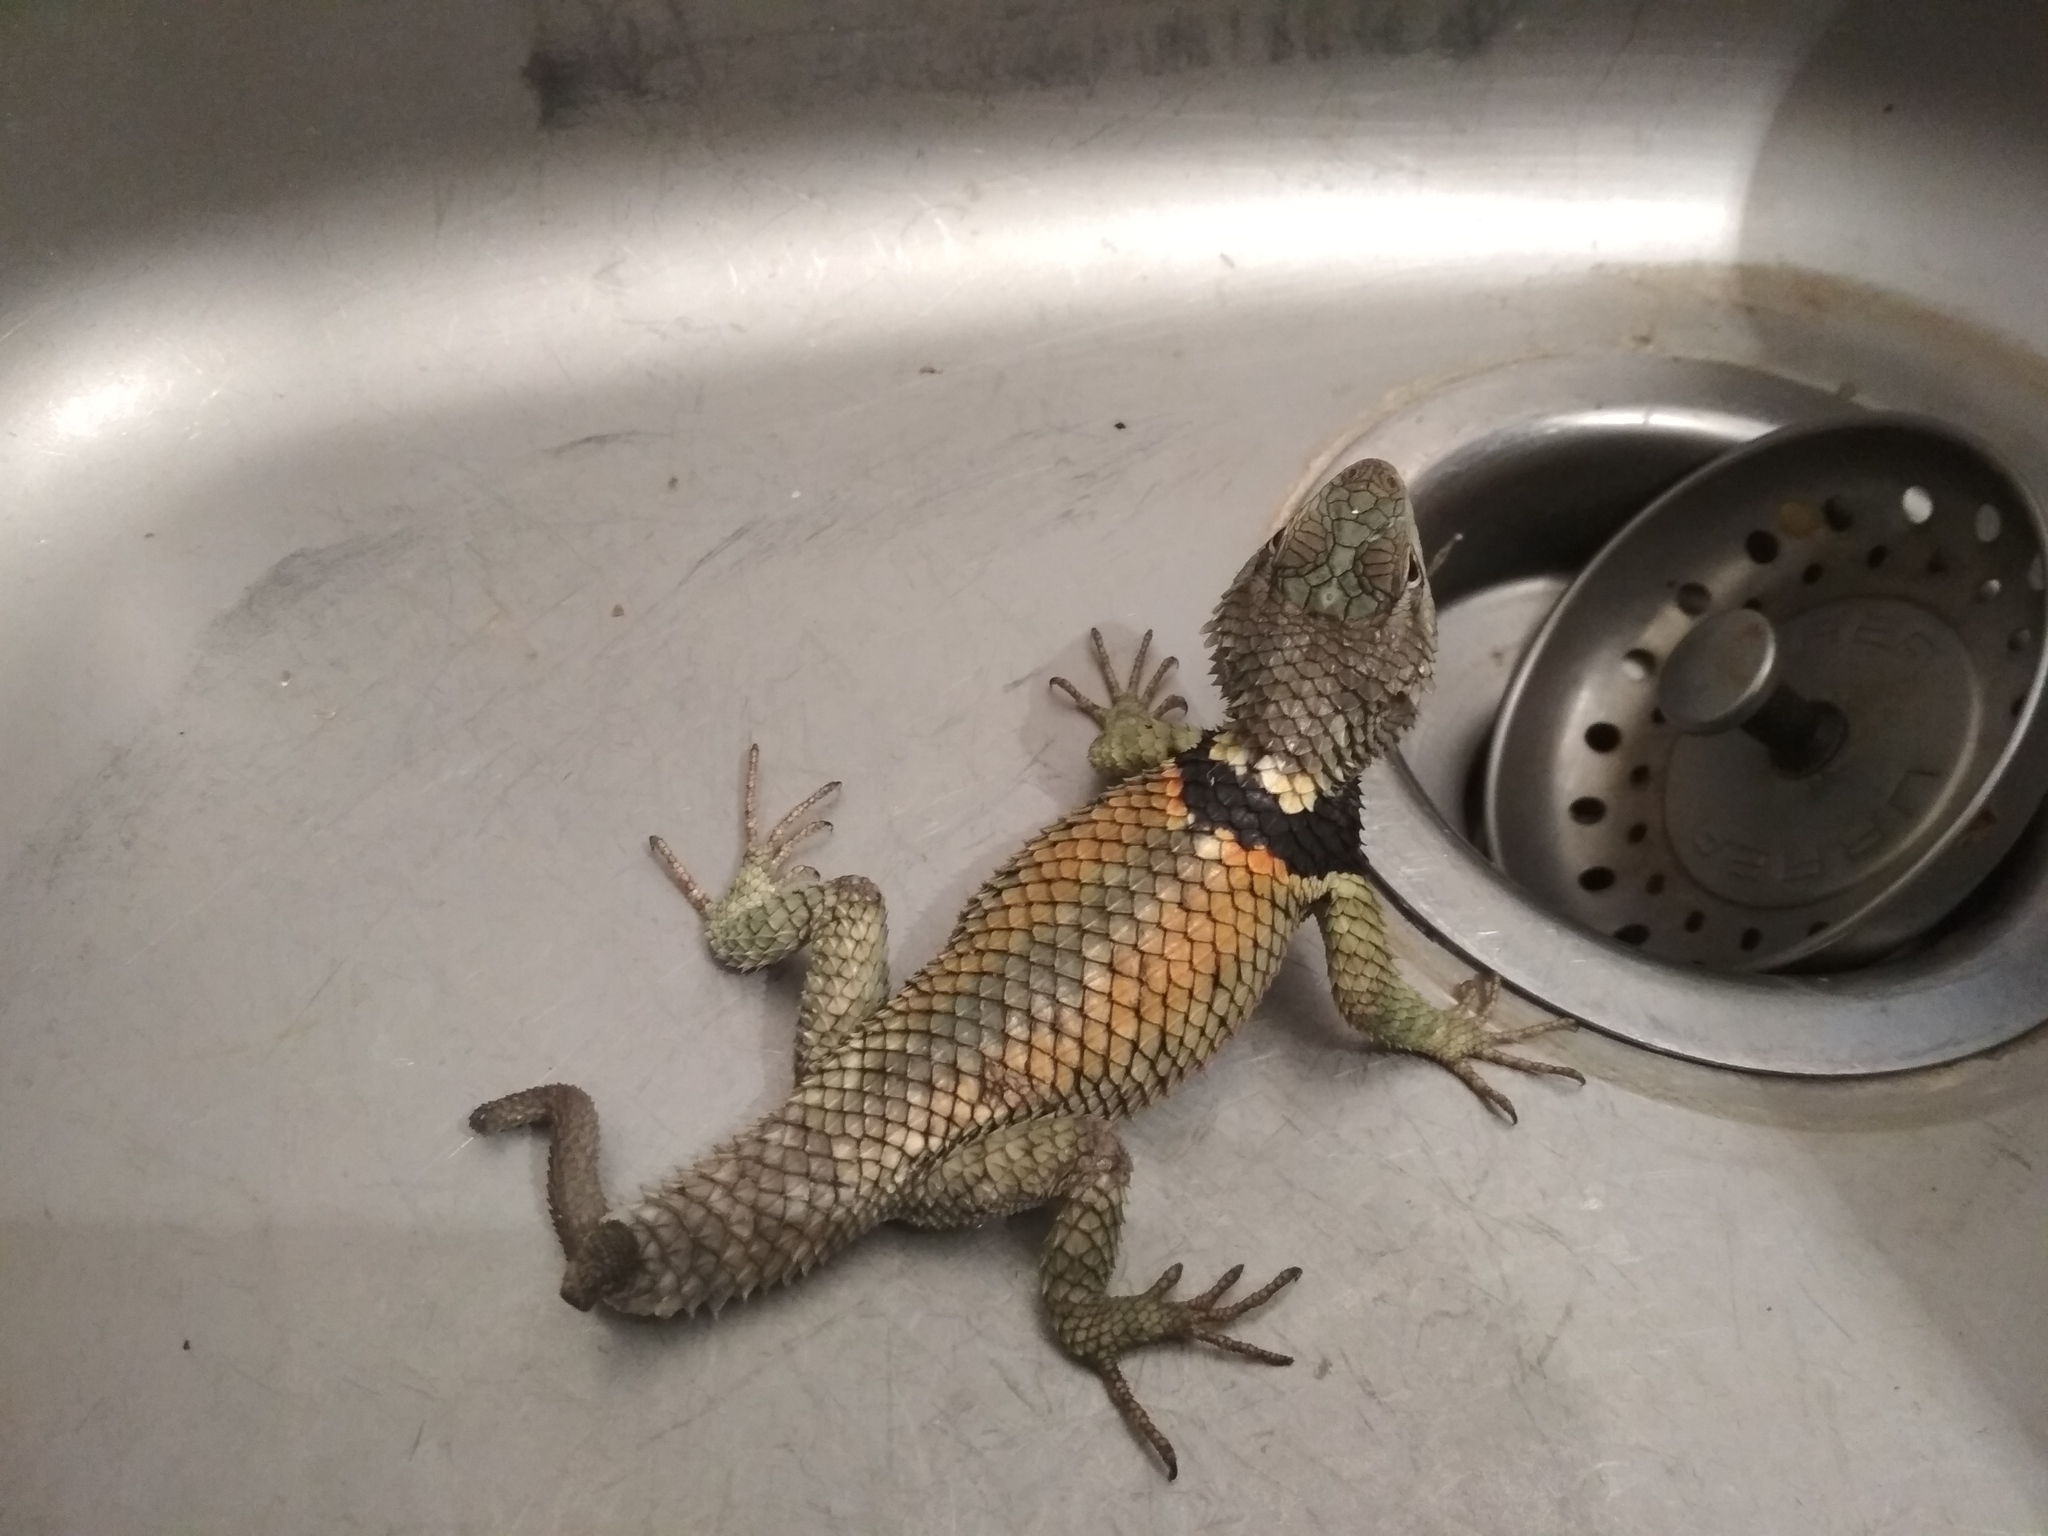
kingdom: Animalia
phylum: Chordata
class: Squamata
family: Phrynosomatidae
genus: Sceloporus
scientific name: Sceloporus torquatus
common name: Central plateau torquate lizard [melanogaster]
